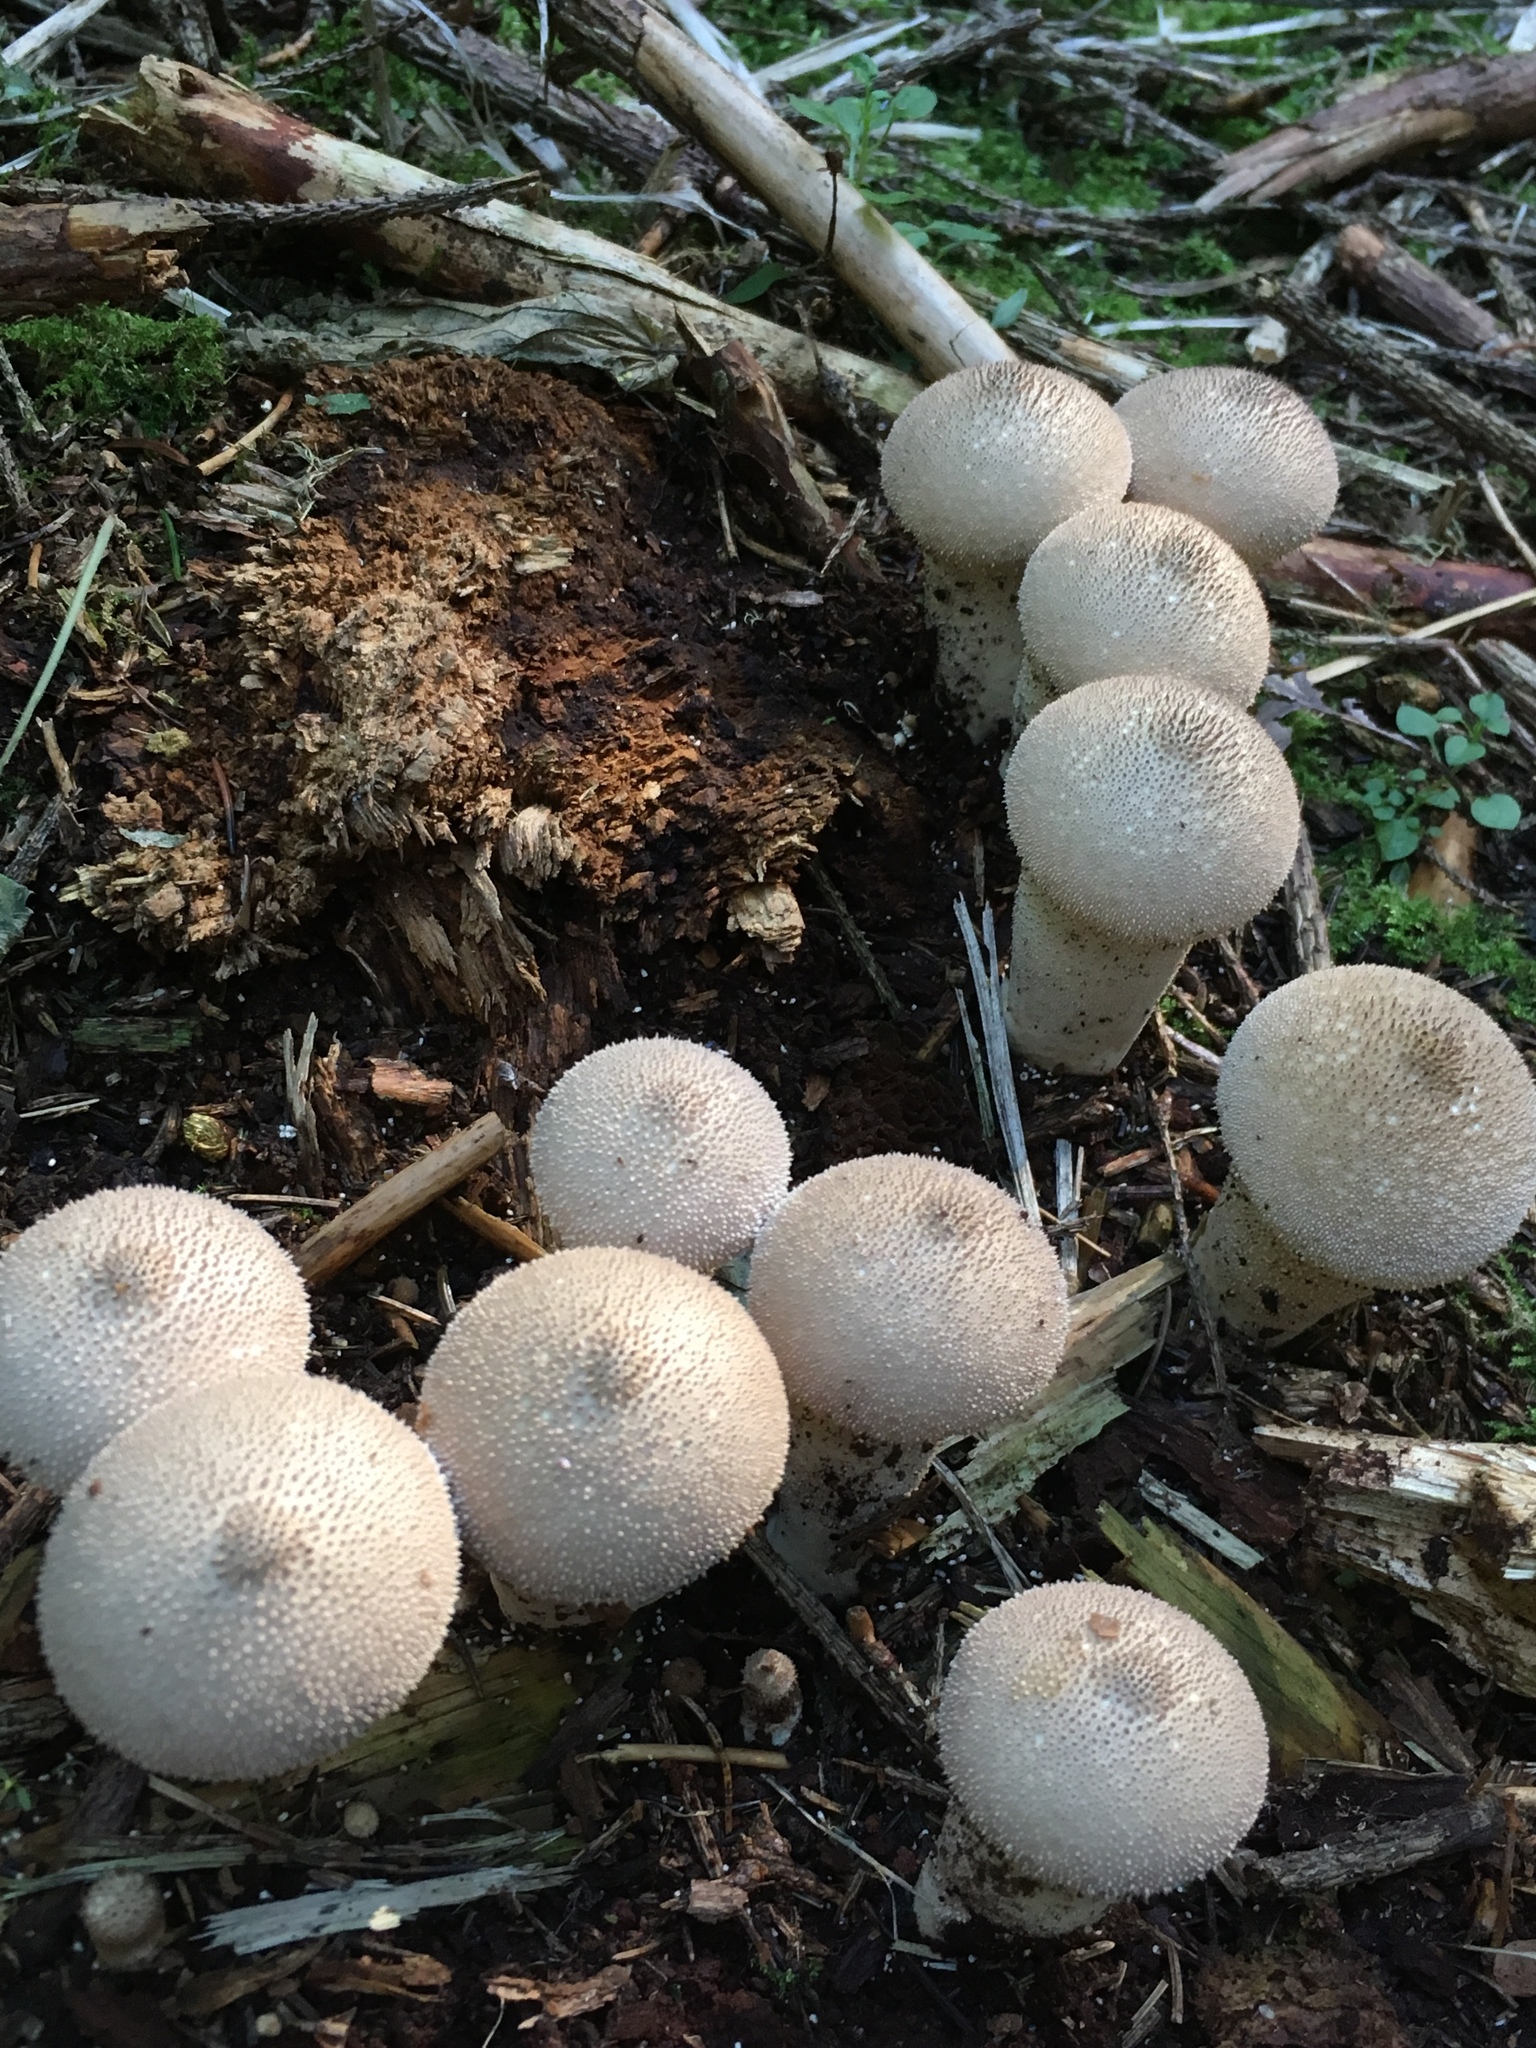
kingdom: Fungi
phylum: Basidiomycota
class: Agaricomycetes
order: Agaricales
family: Lycoperdaceae
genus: Lycoperdon
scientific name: Lycoperdon perlatum
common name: Common puffball
